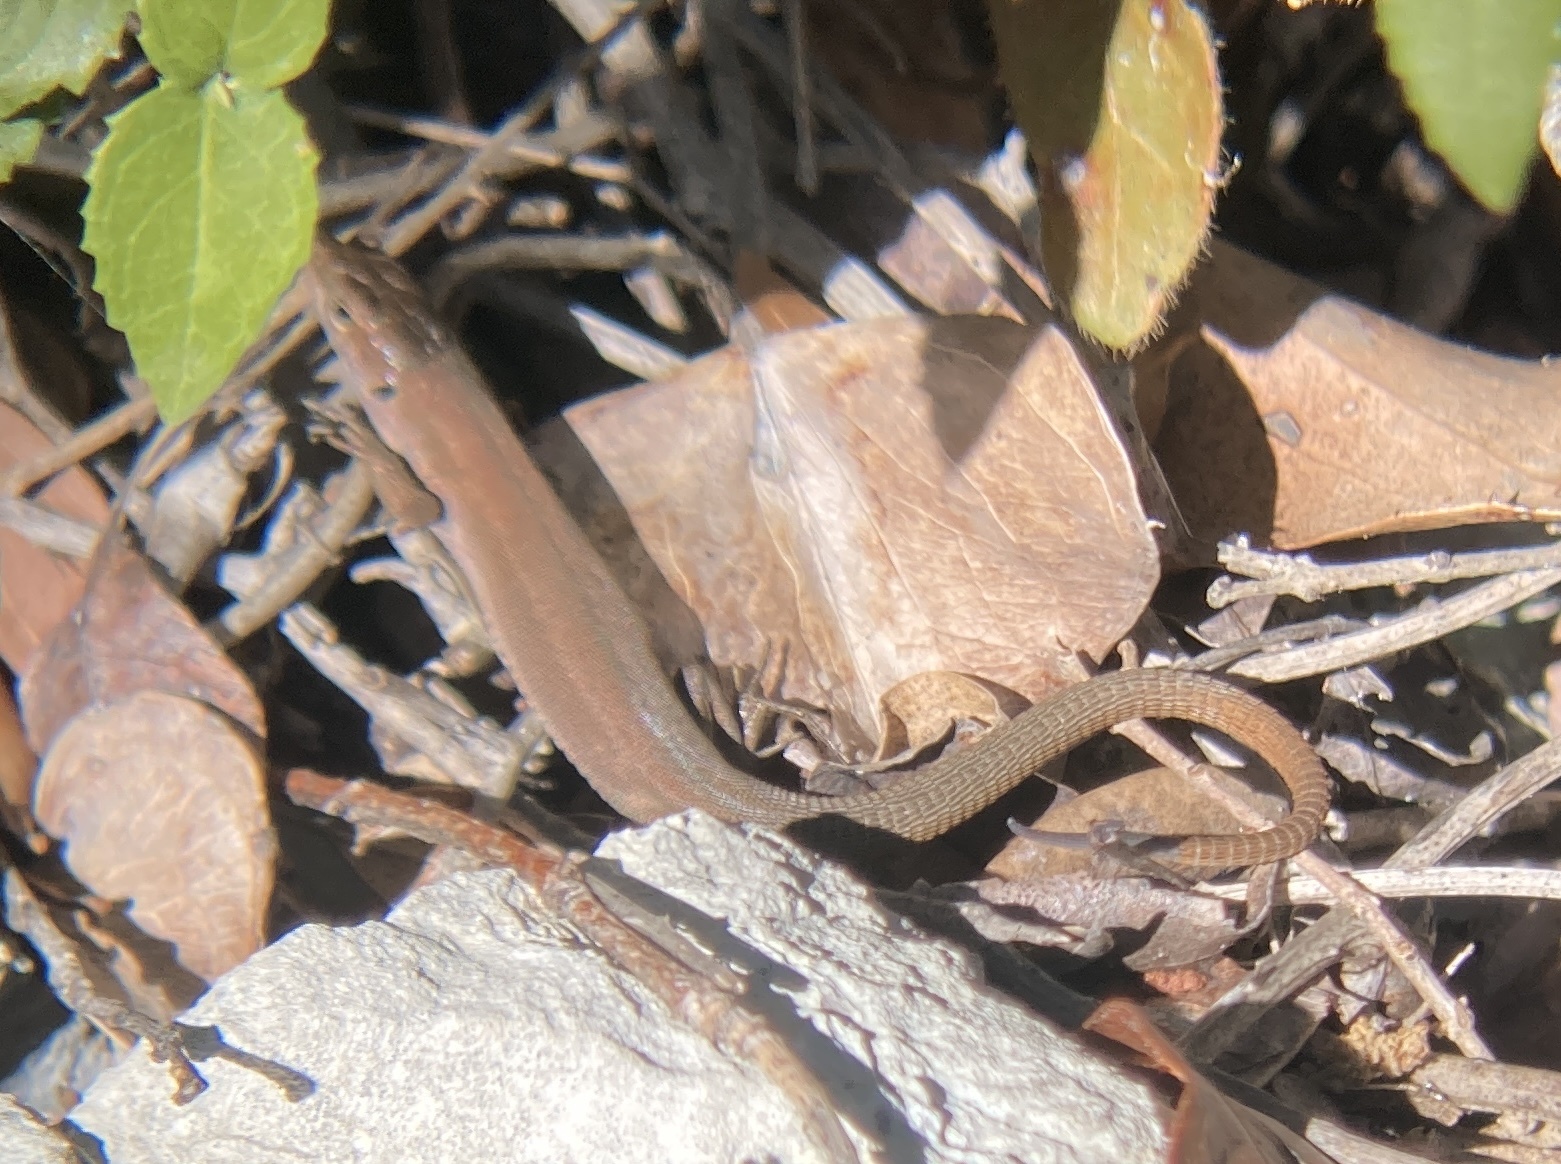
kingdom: Animalia
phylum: Chordata
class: Squamata
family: Lacertidae
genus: Podarcis
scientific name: Podarcis melisellensis
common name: Dalmatian wall lizard
